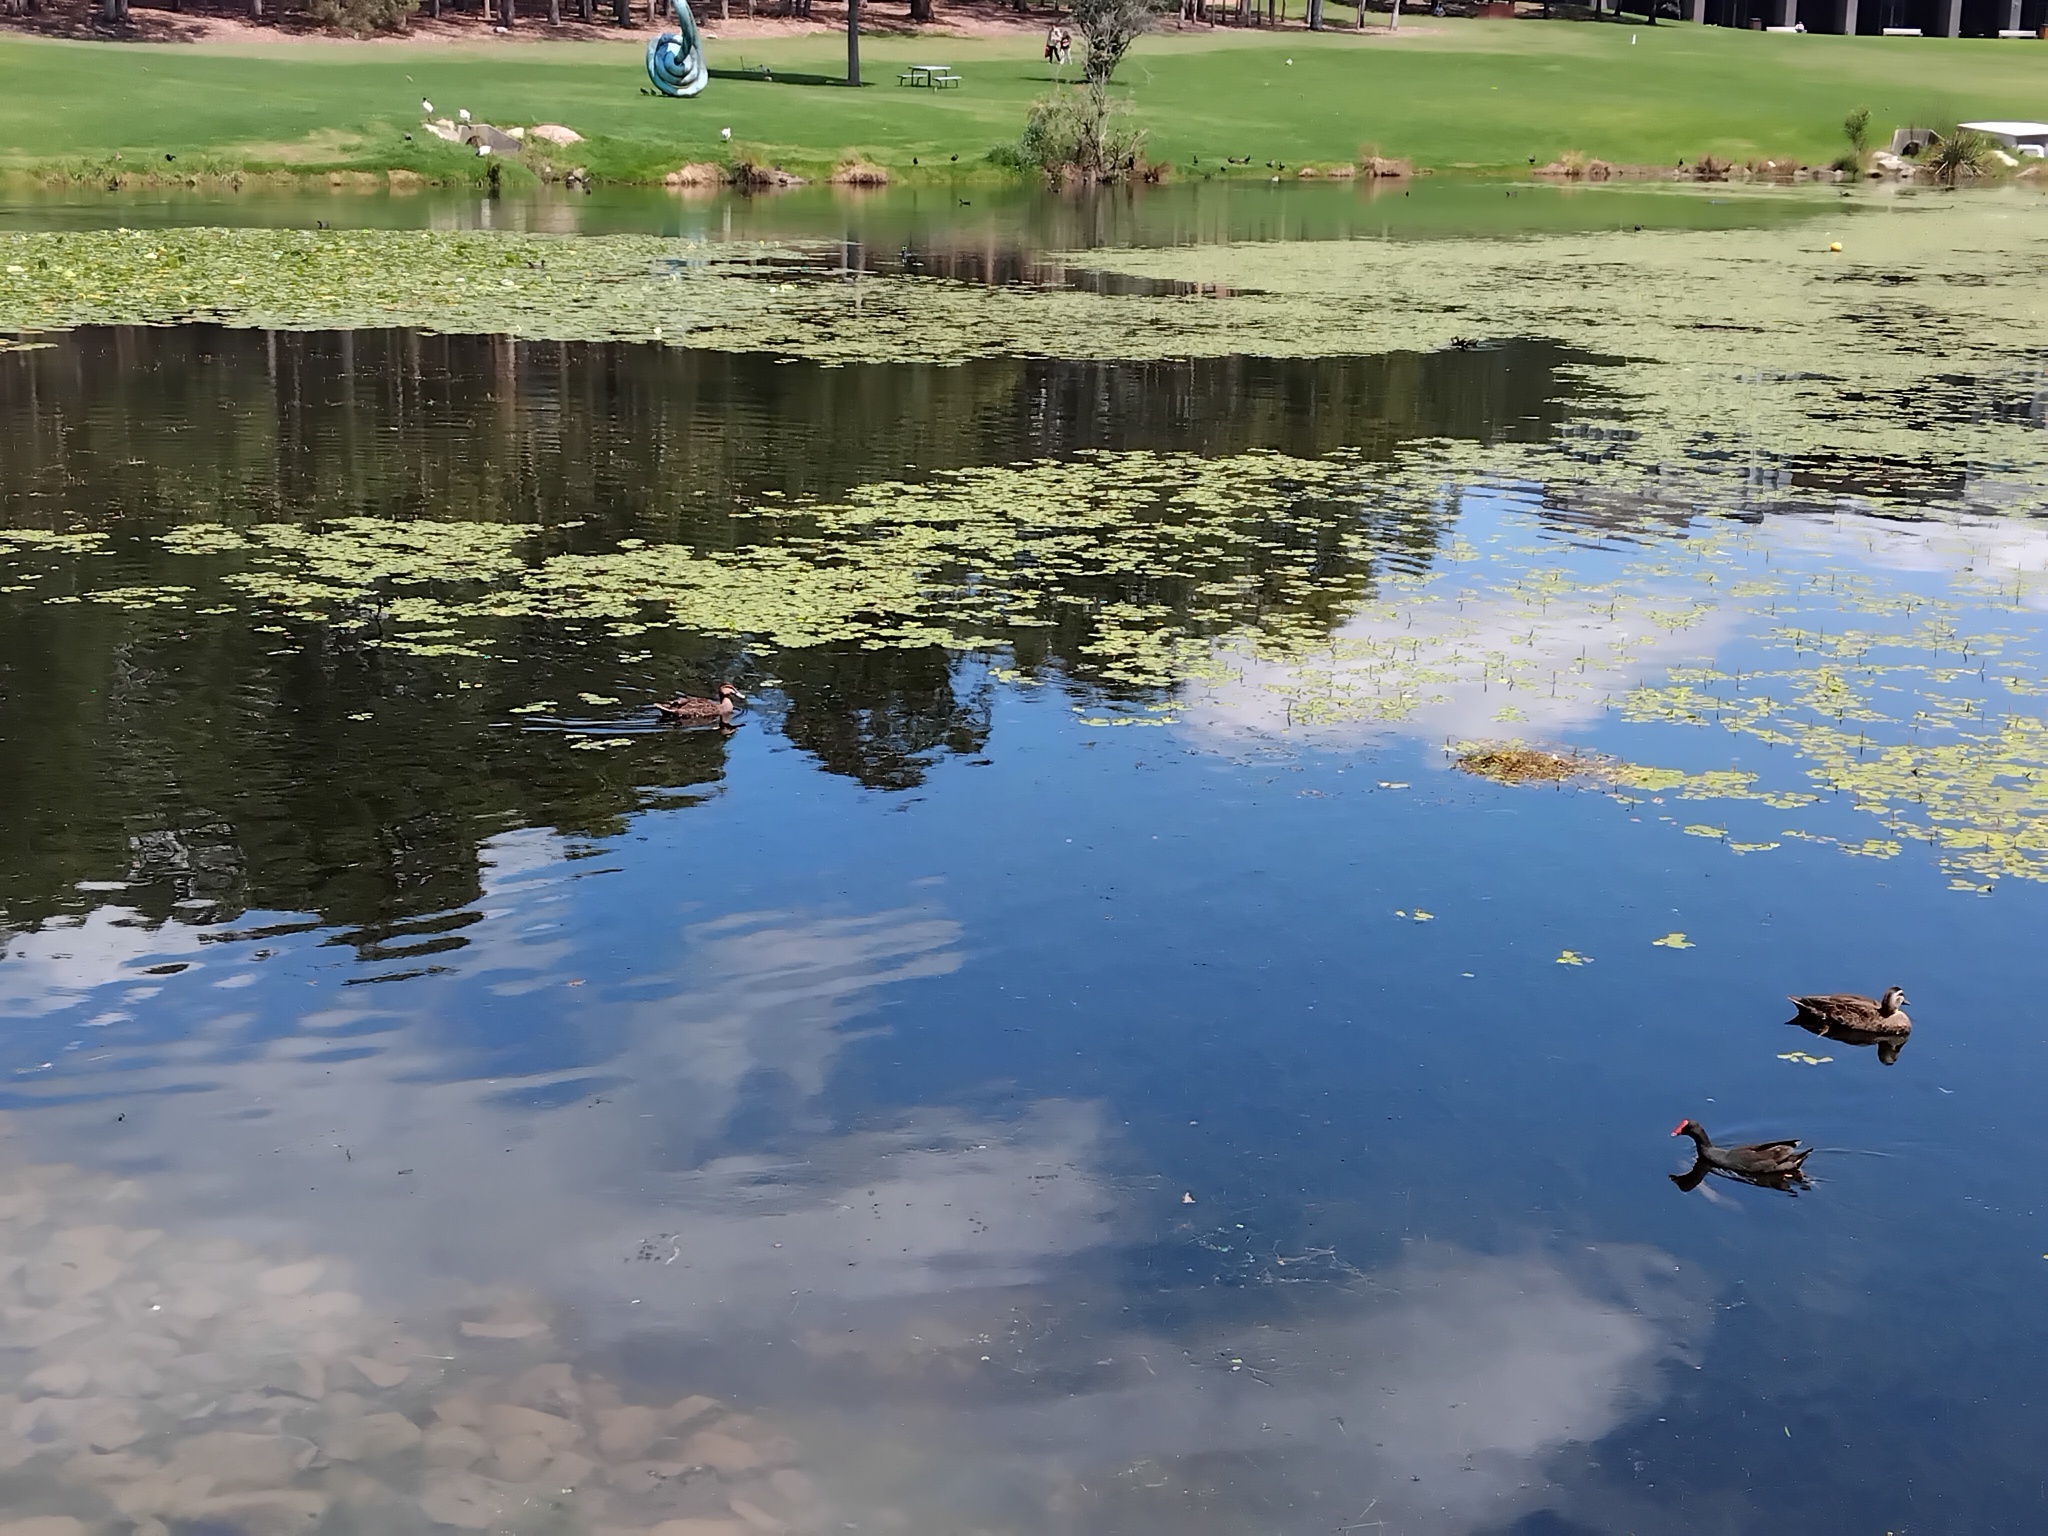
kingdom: Animalia
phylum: Chordata
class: Aves
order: Podicipediformes
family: Podicipedidae
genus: Tachybaptus
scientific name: Tachybaptus novaehollandiae
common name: Australasian grebe
